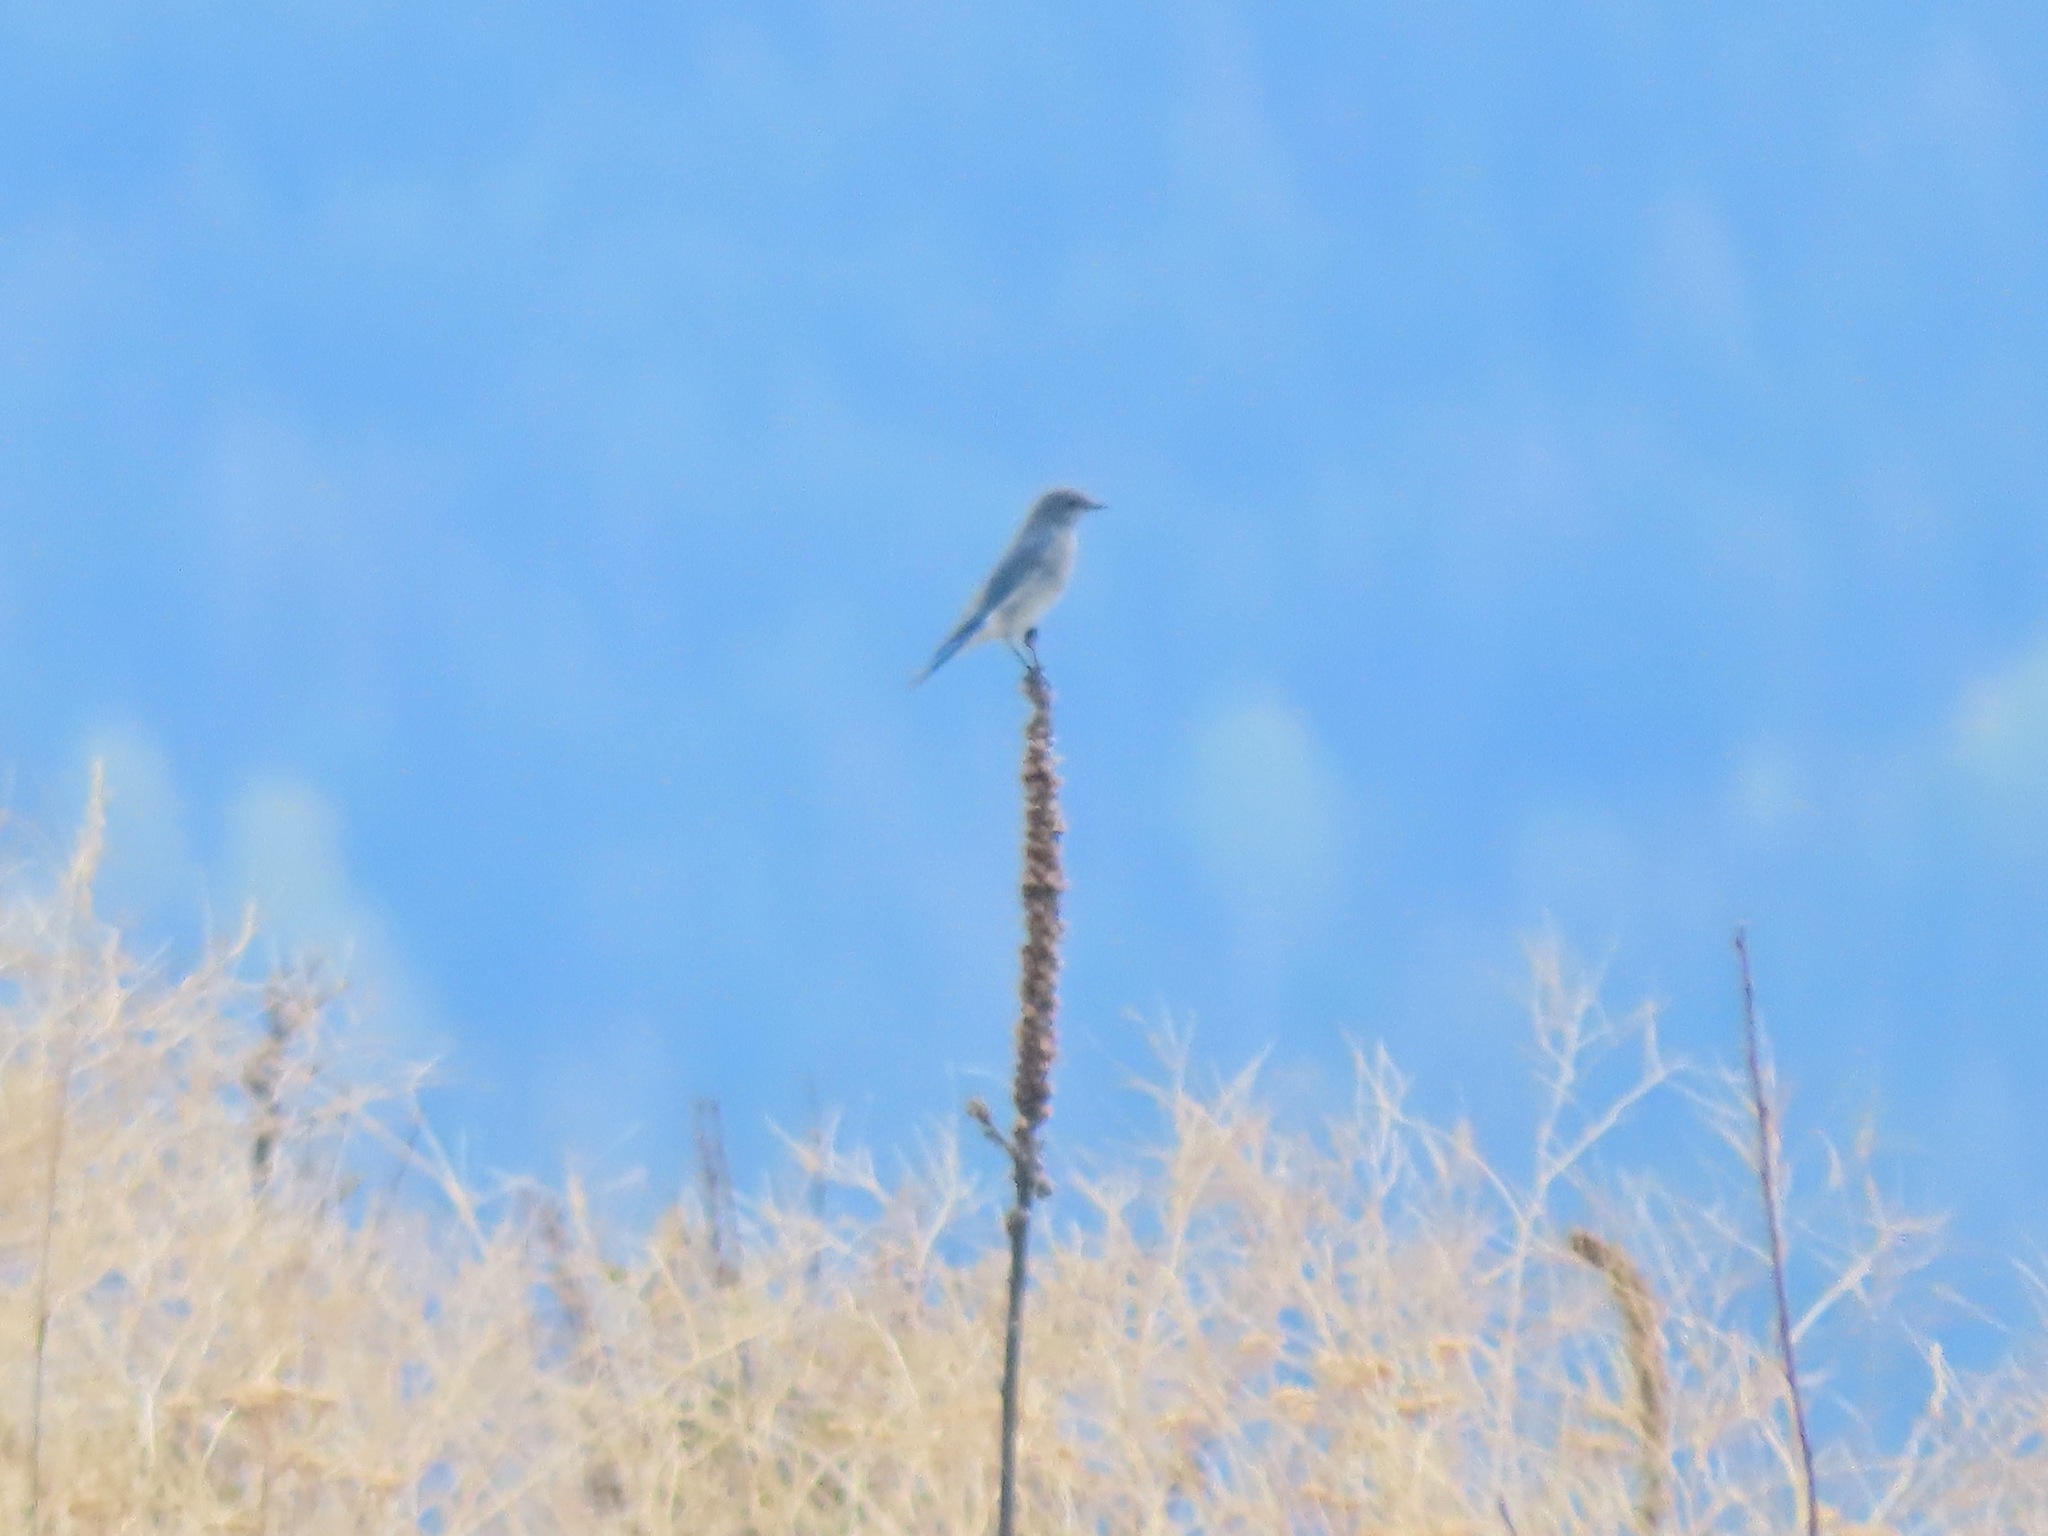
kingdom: Animalia
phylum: Chordata
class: Aves
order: Passeriformes
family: Turdidae
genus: Sialia
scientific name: Sialia currucoides
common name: Mountain bluebird
